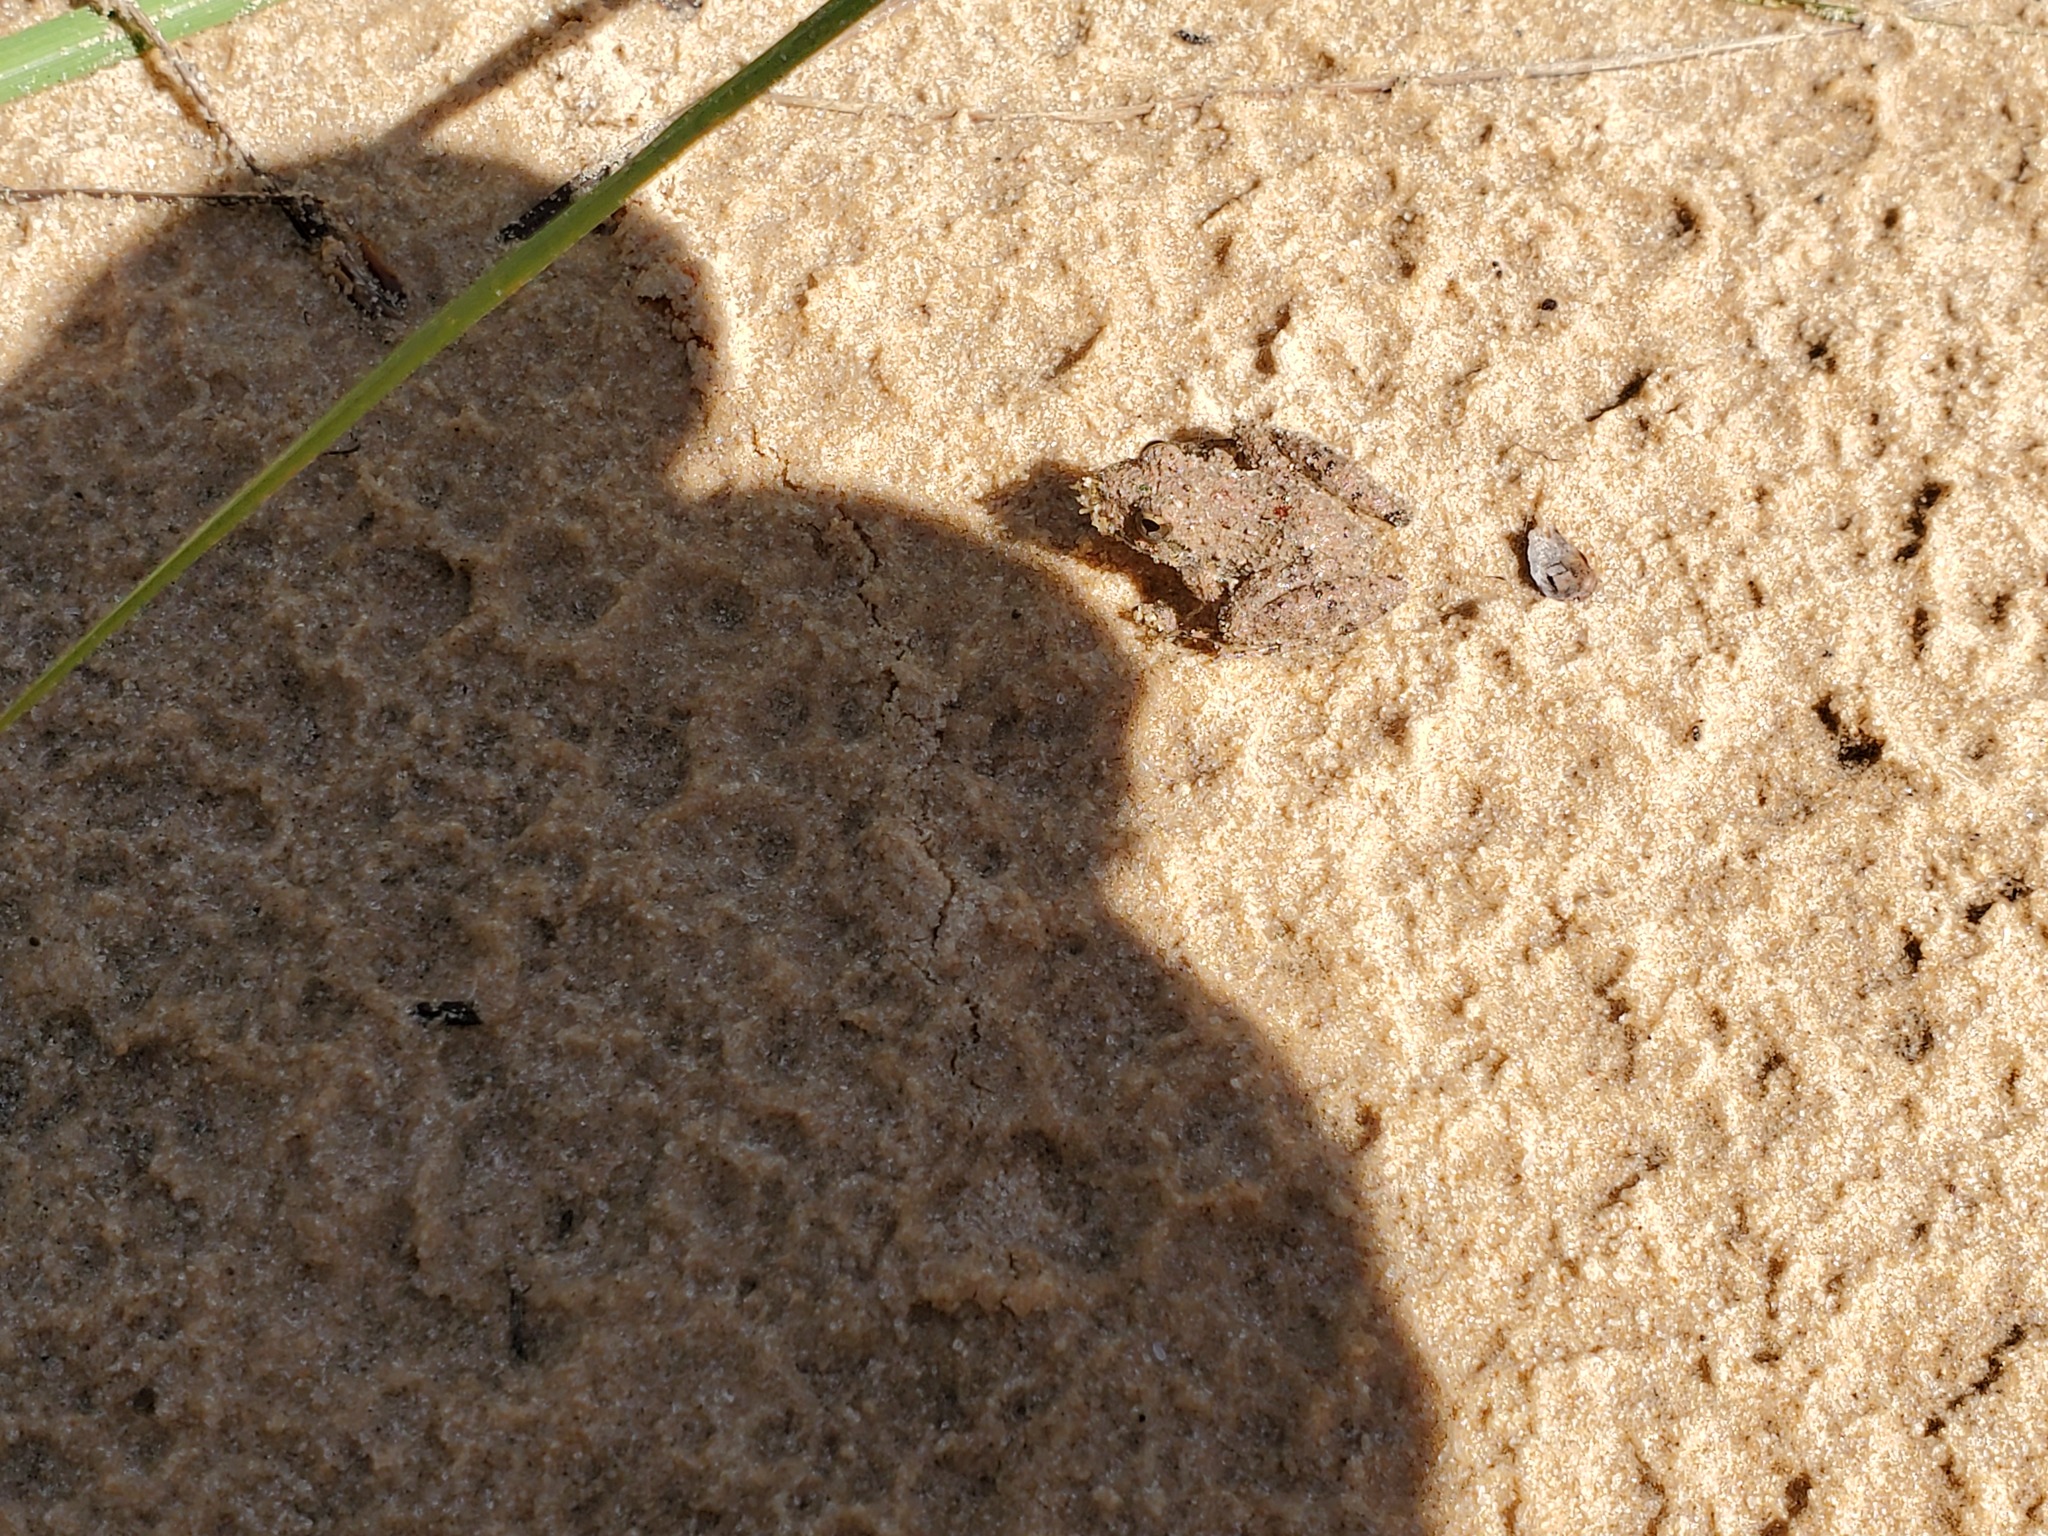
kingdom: Animalia
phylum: Chordata
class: Amphibia
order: Anura
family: Hylidae
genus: Acris
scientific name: Acris blanchardi
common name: Blanchard's cricket frog
